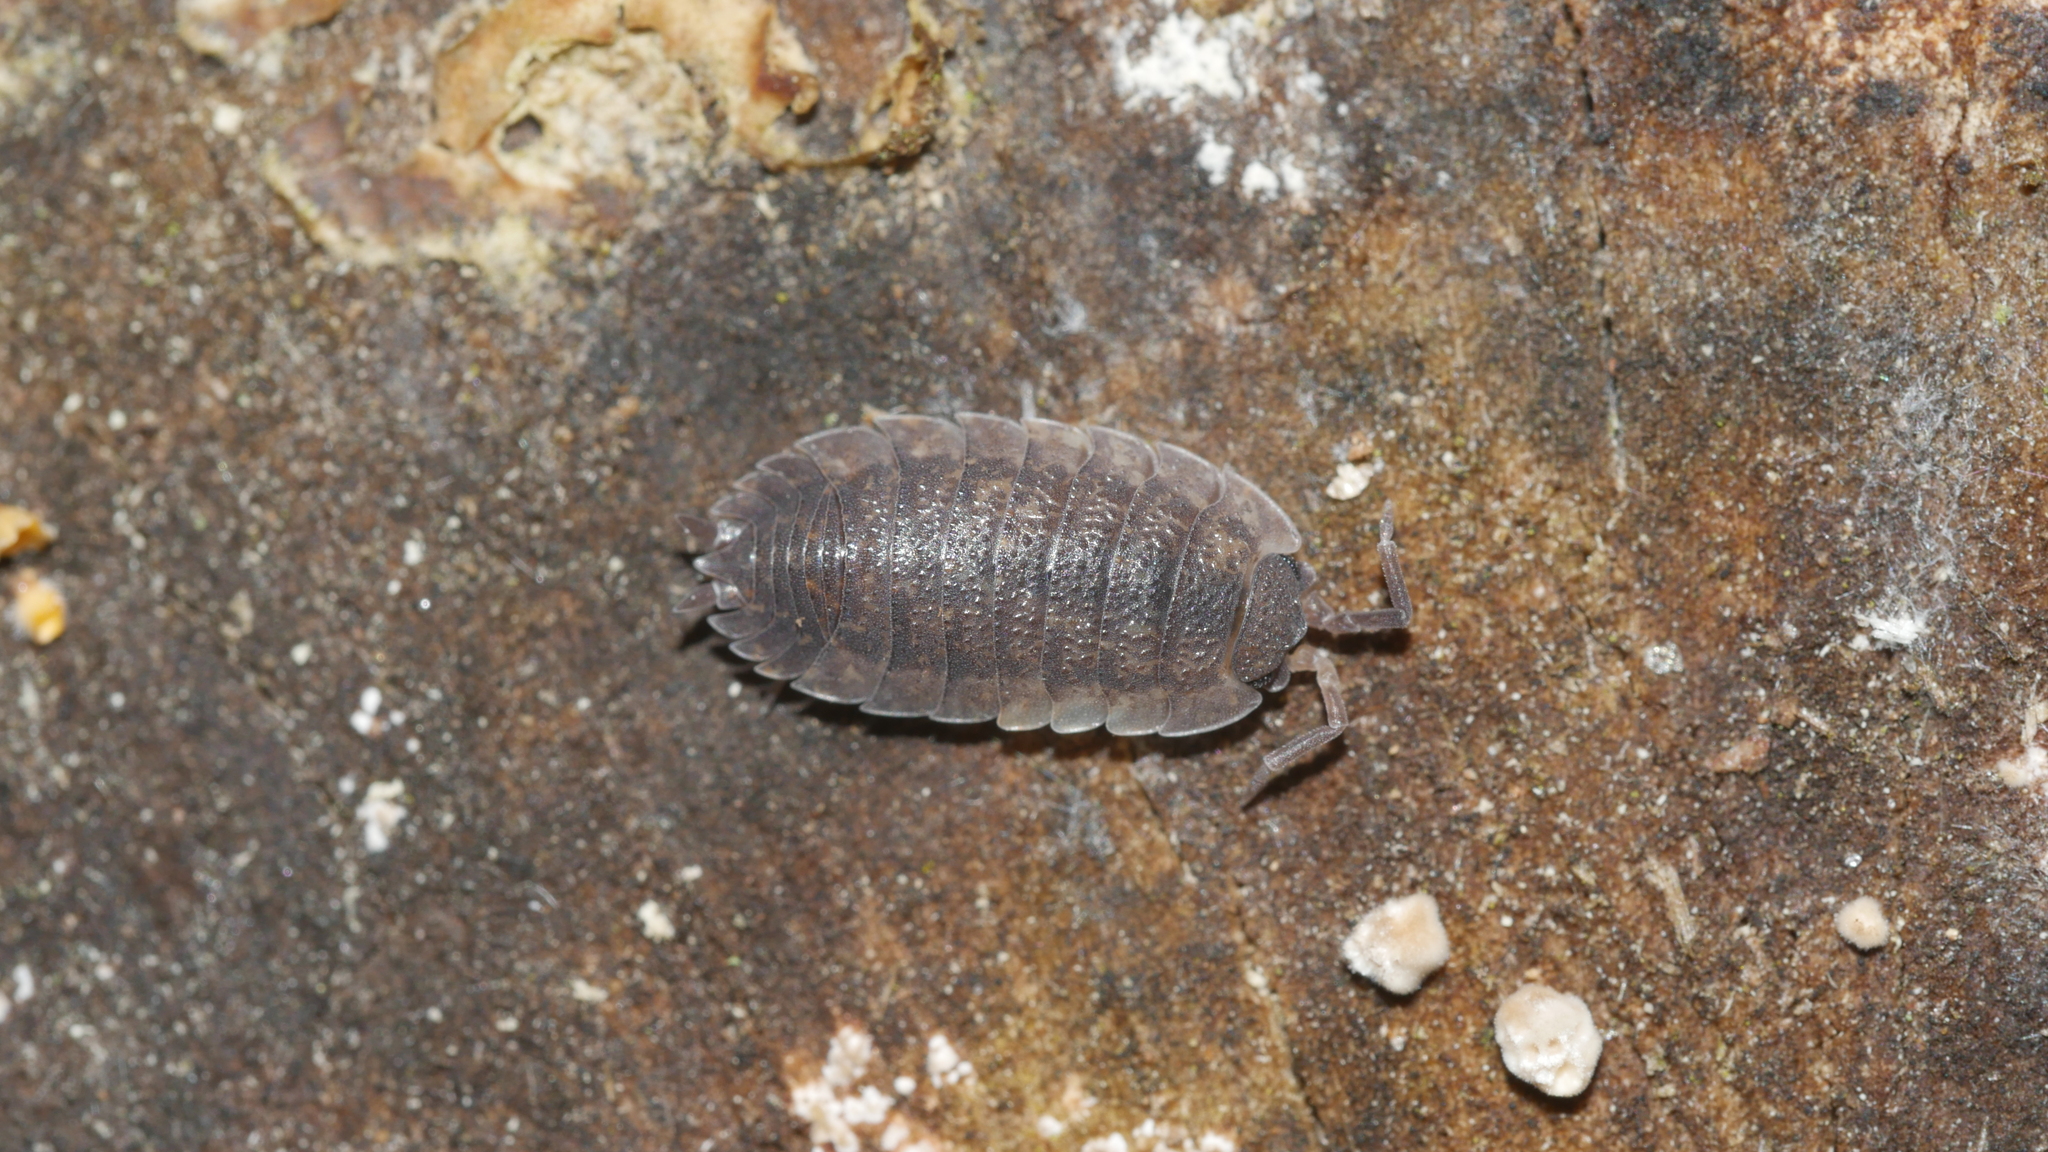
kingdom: Animalia
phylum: Arthropoda
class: Malacostraca
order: Isopoda
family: Porcellionidae
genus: Porcellio
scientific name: Porcellio scaber
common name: Common rough woodlouse
